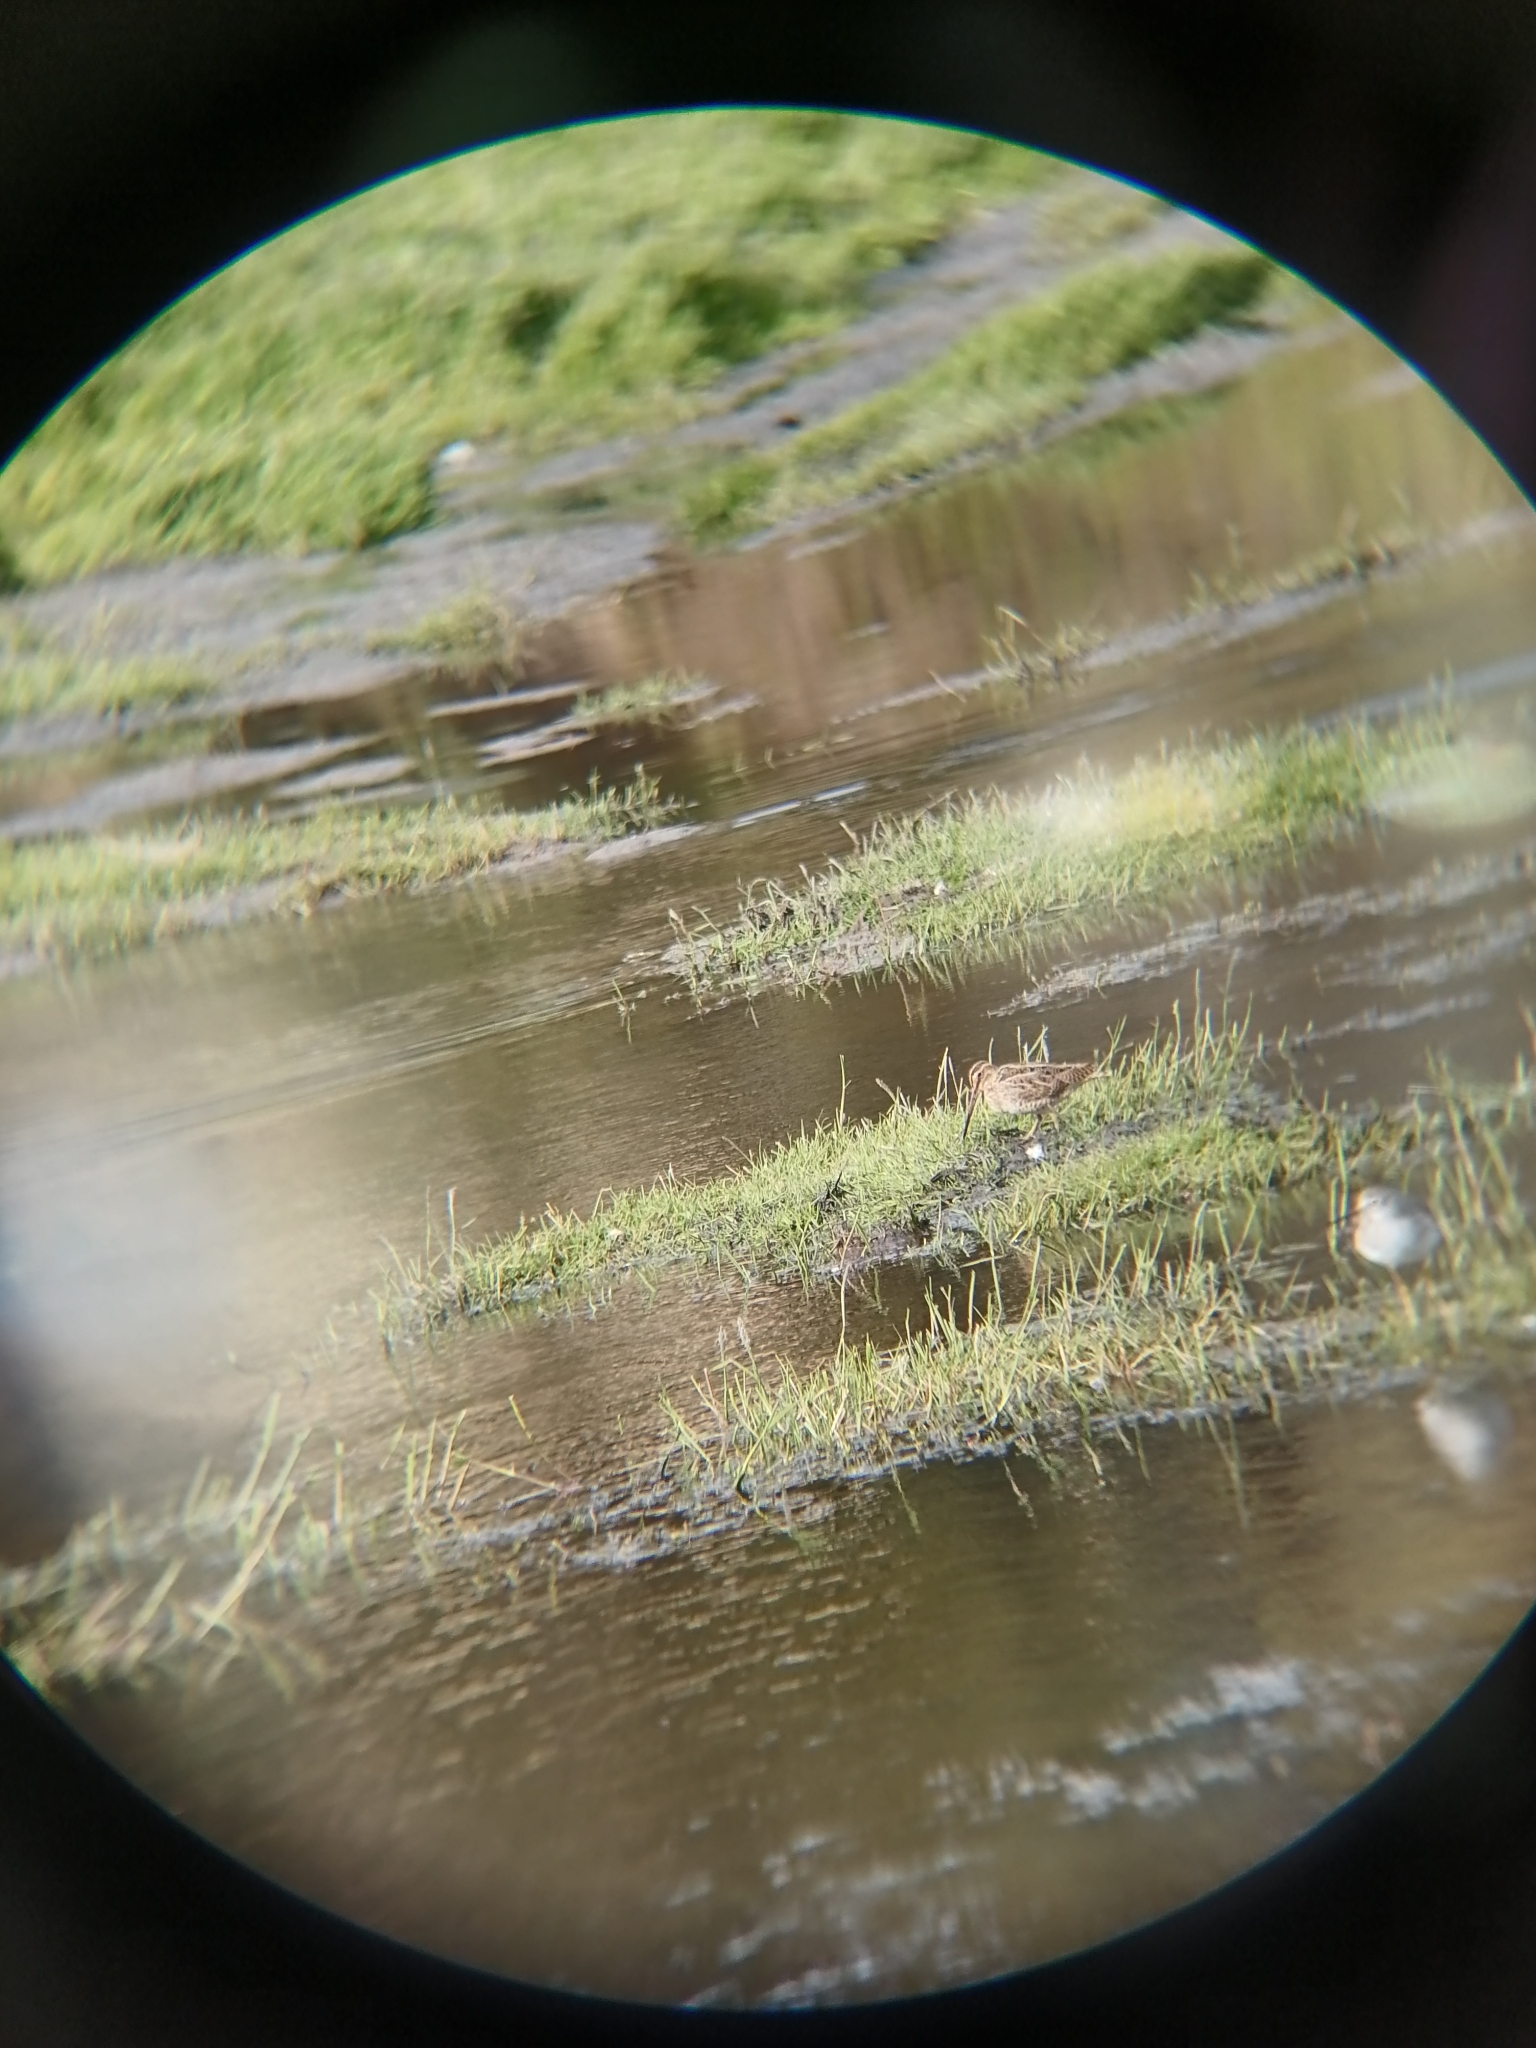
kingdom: Animalia
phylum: Chordata
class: Aves
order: Charadriiformes
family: Scolopacidae
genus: Gallinago
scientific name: Gallinago magellanica
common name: Magellanic snipe
